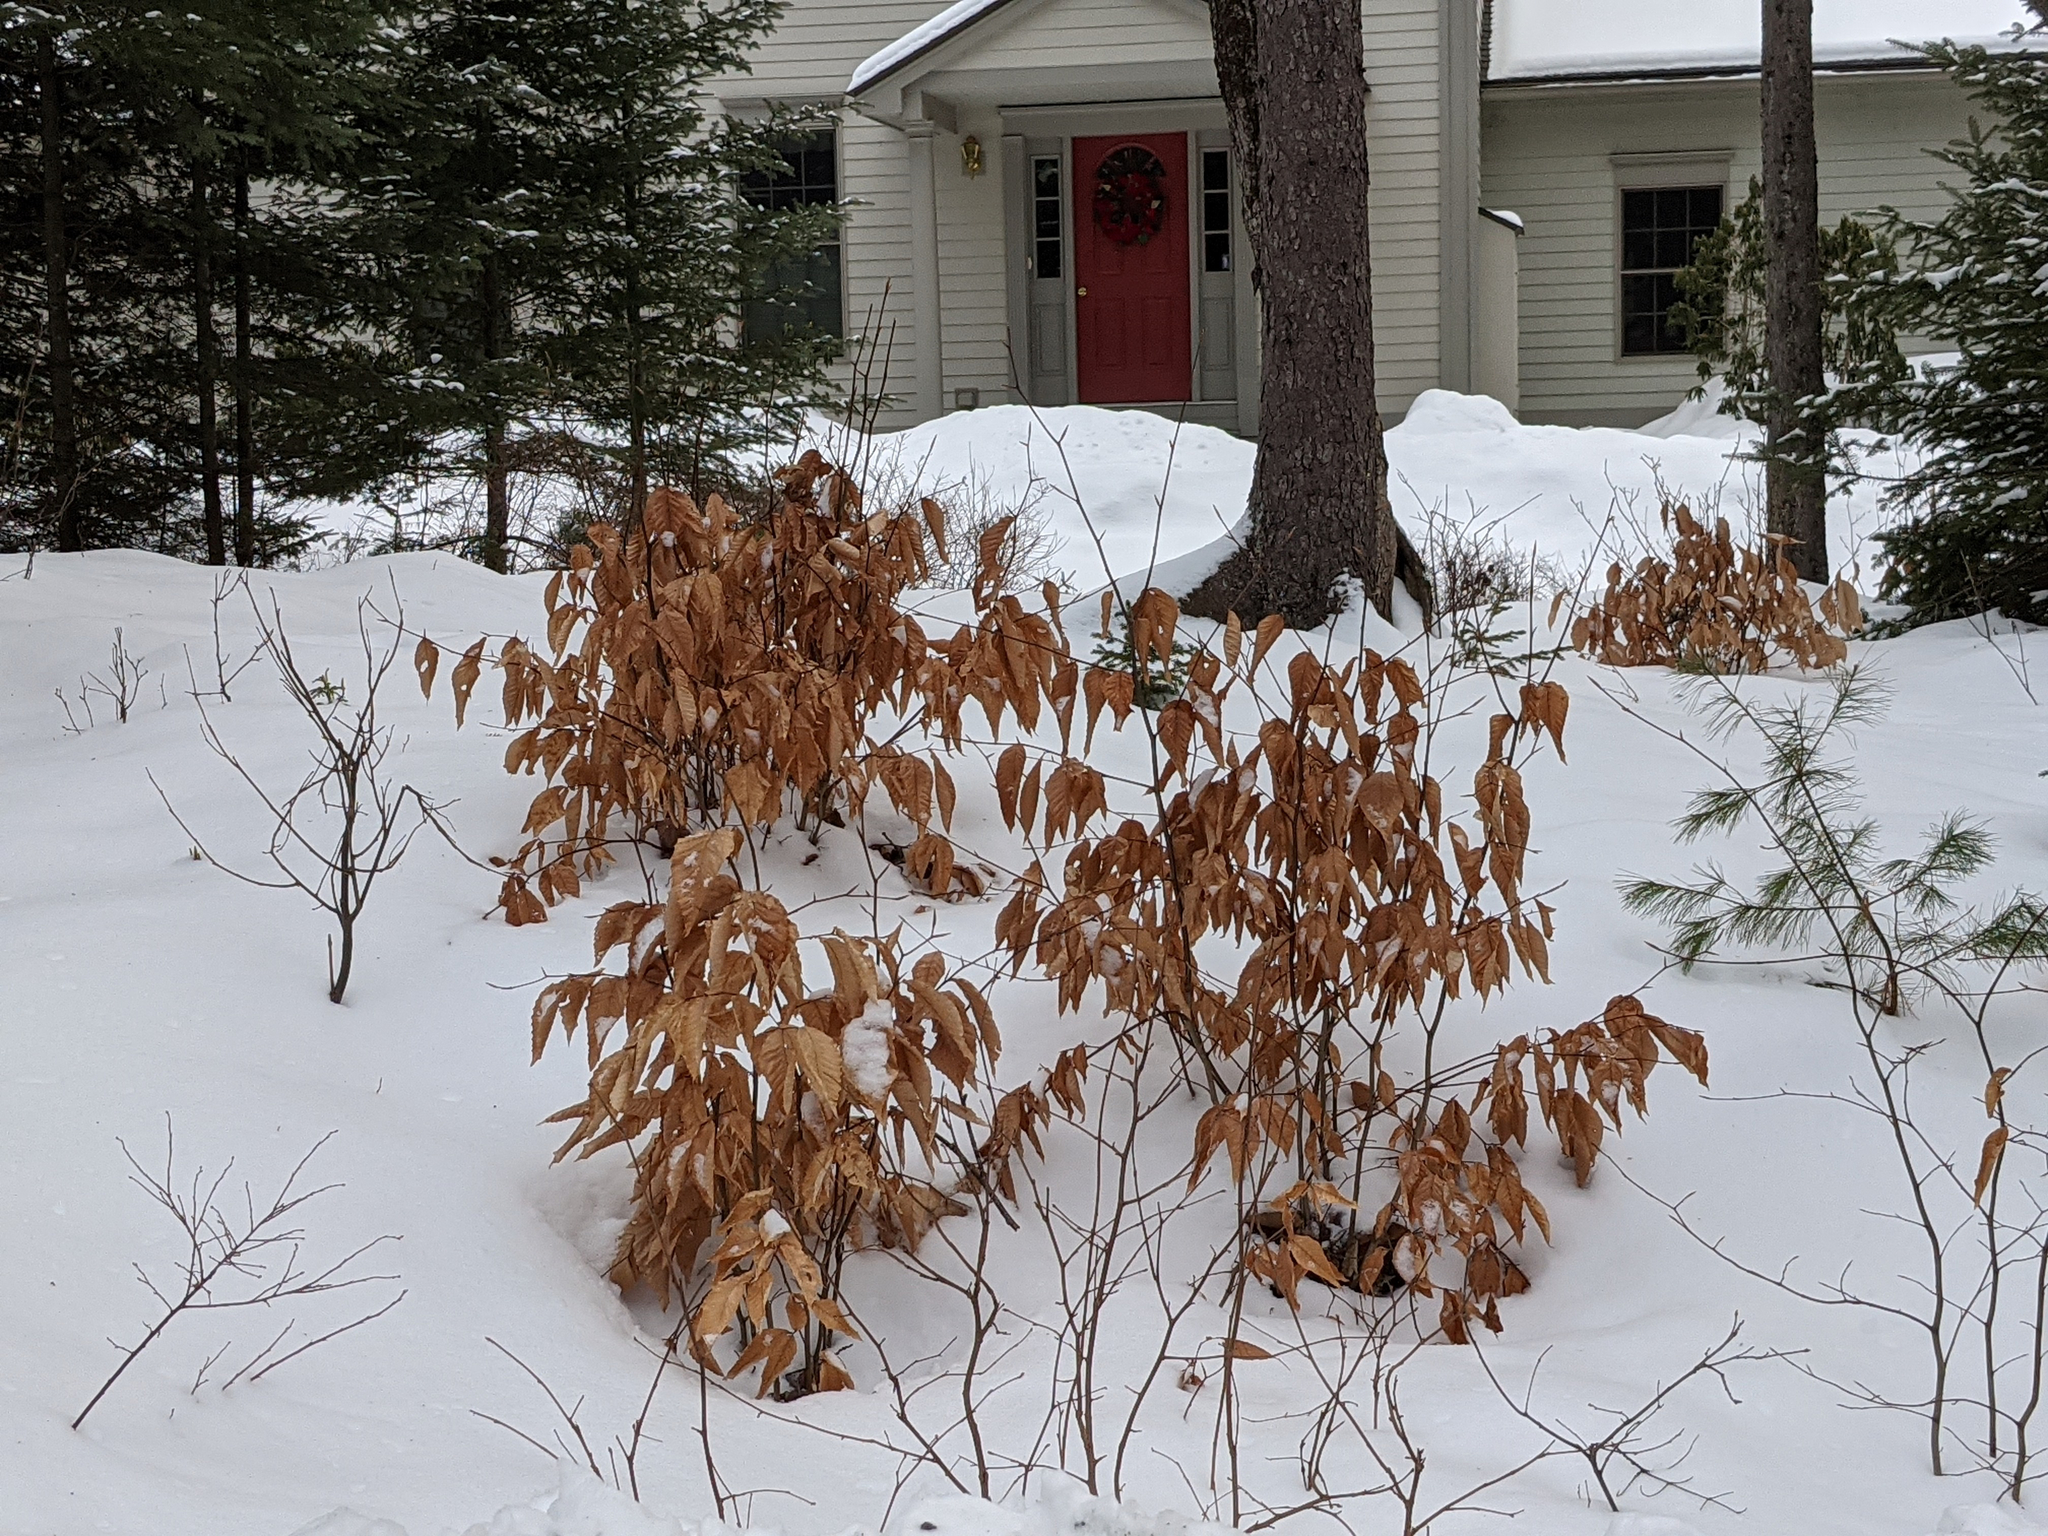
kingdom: Plantae
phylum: Tracheophyta
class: Magnoliopsida
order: Fagales
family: Fagaceae
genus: Fagus
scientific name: Fagus grandifolia
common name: American beech
